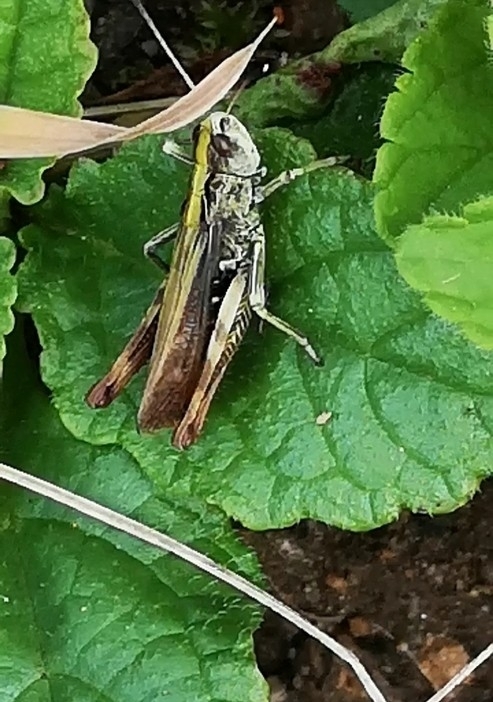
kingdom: Animalia
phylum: Arthropoda
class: Insecta
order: Orthoptera
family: Acrididae
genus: Gomphocerippus
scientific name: Gomphocerippus rufus
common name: Rufous grasshopper
